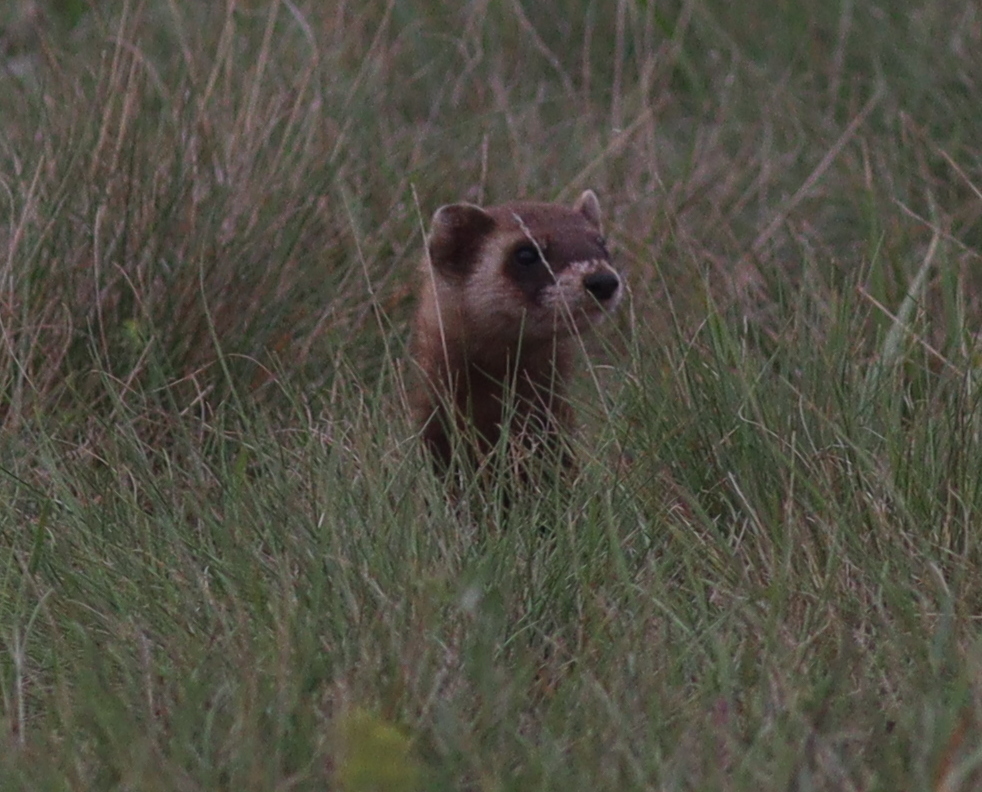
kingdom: Animalia
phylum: Chordata
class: Mammalia
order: Carnivora
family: Mustelidae
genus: Mustela
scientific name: Mustela eversmanii
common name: Steppe polecat
